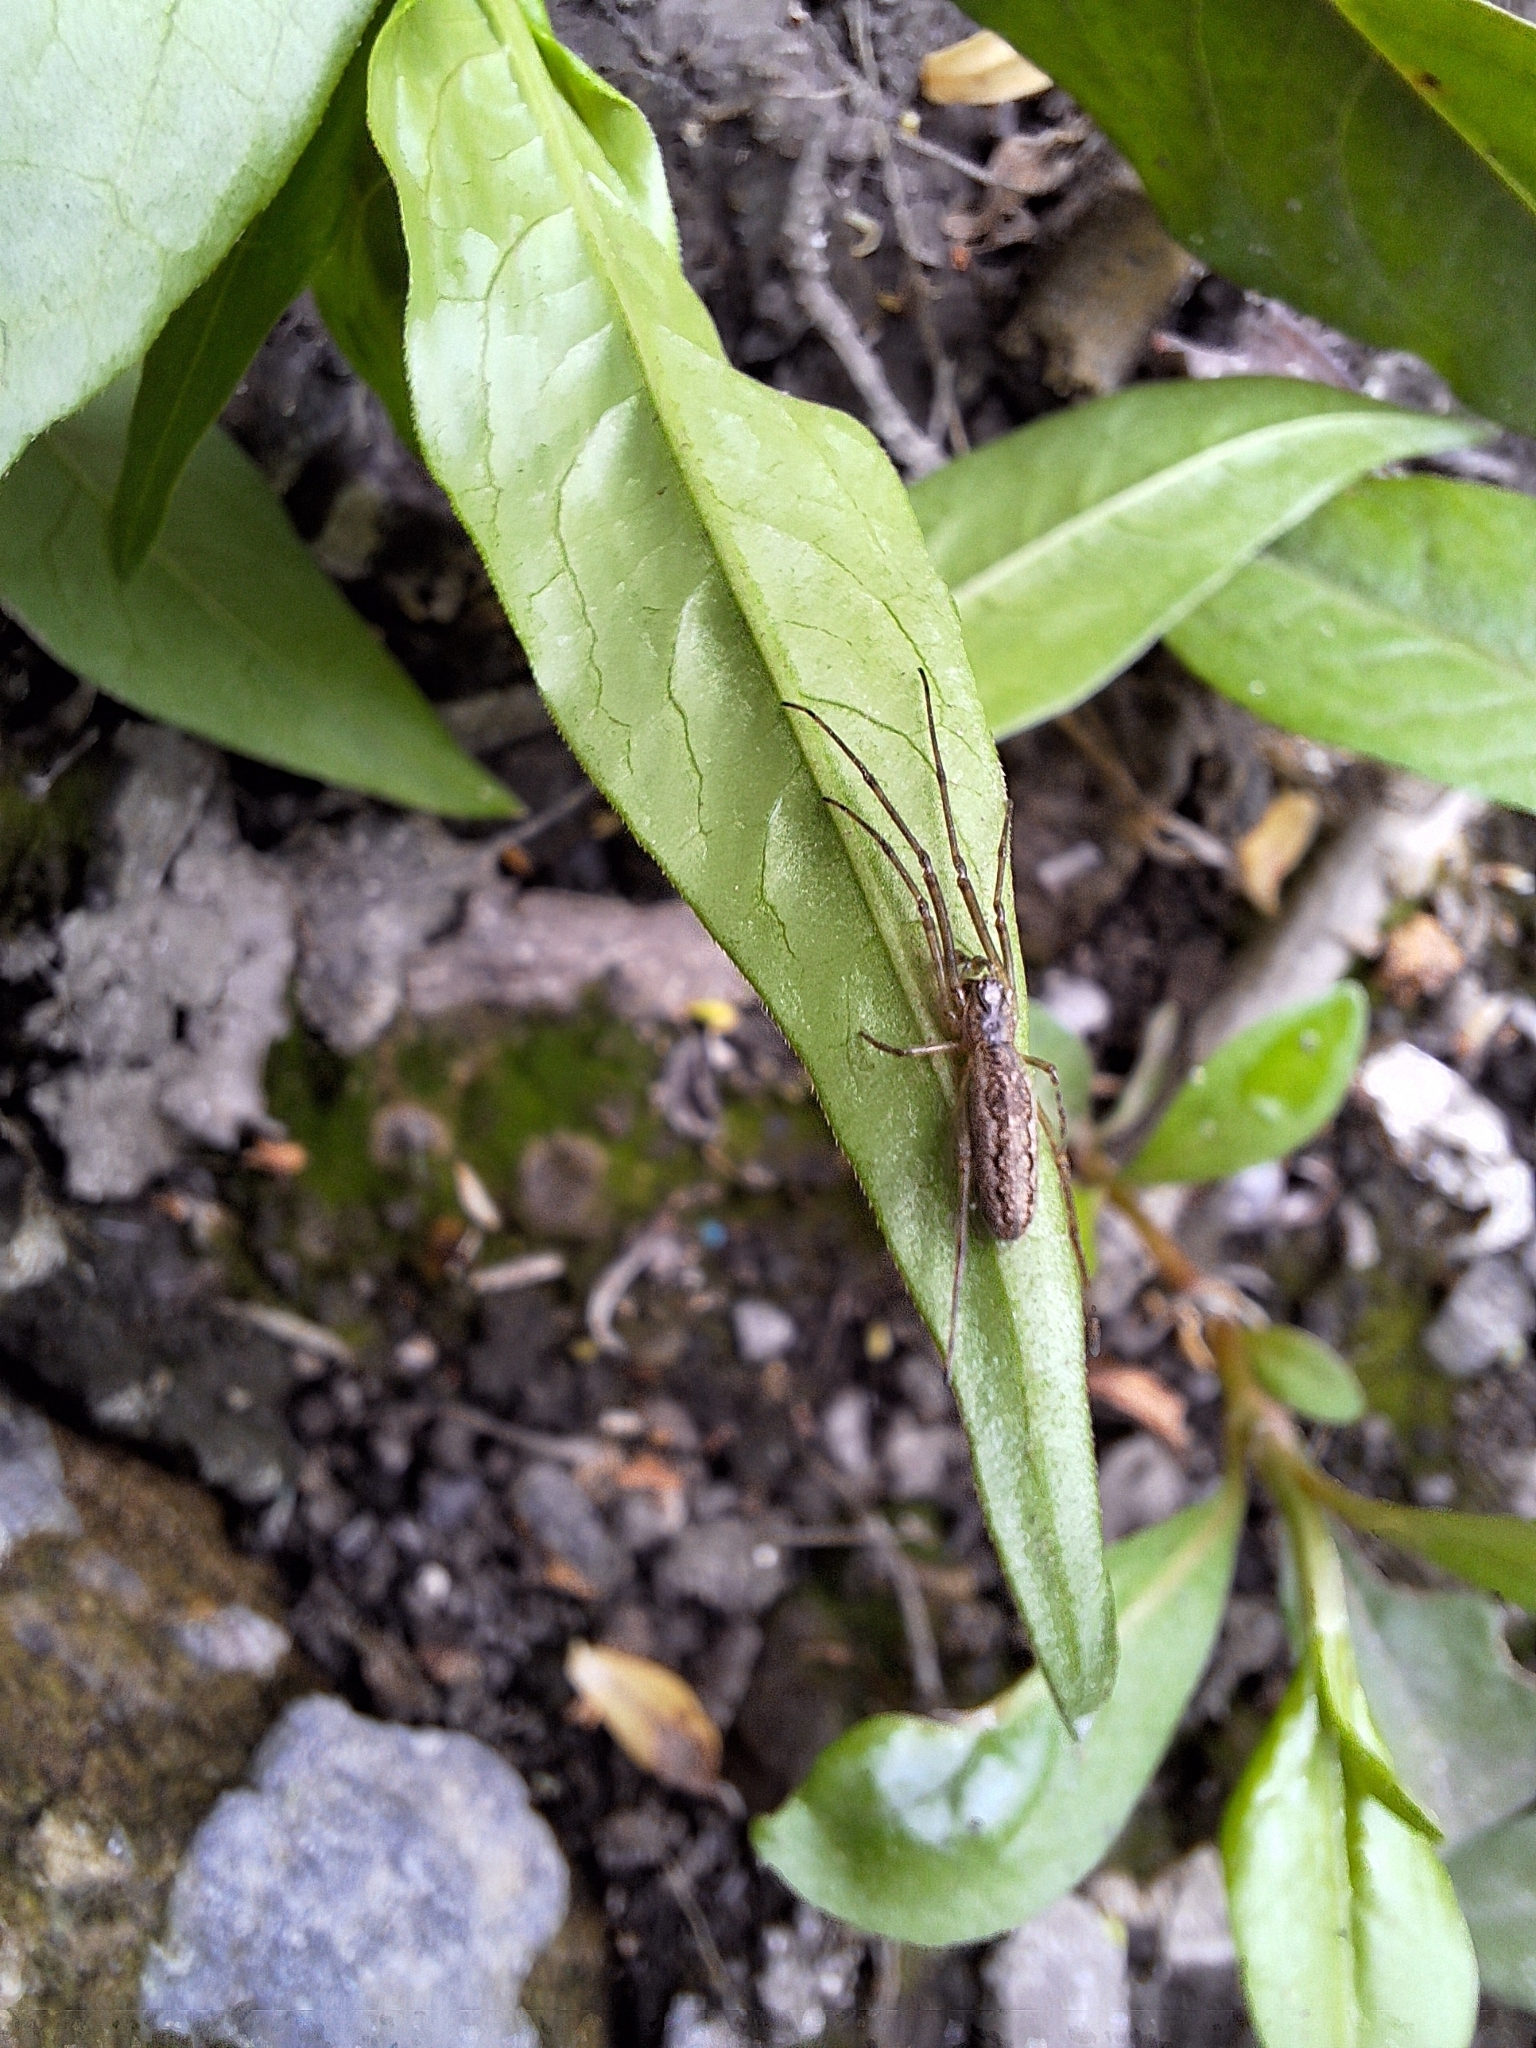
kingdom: Animalia
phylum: Arthropoda
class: Arachnida
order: Araneae
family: Tetragnathidae
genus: Tetragnatha
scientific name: Tetragnatha
